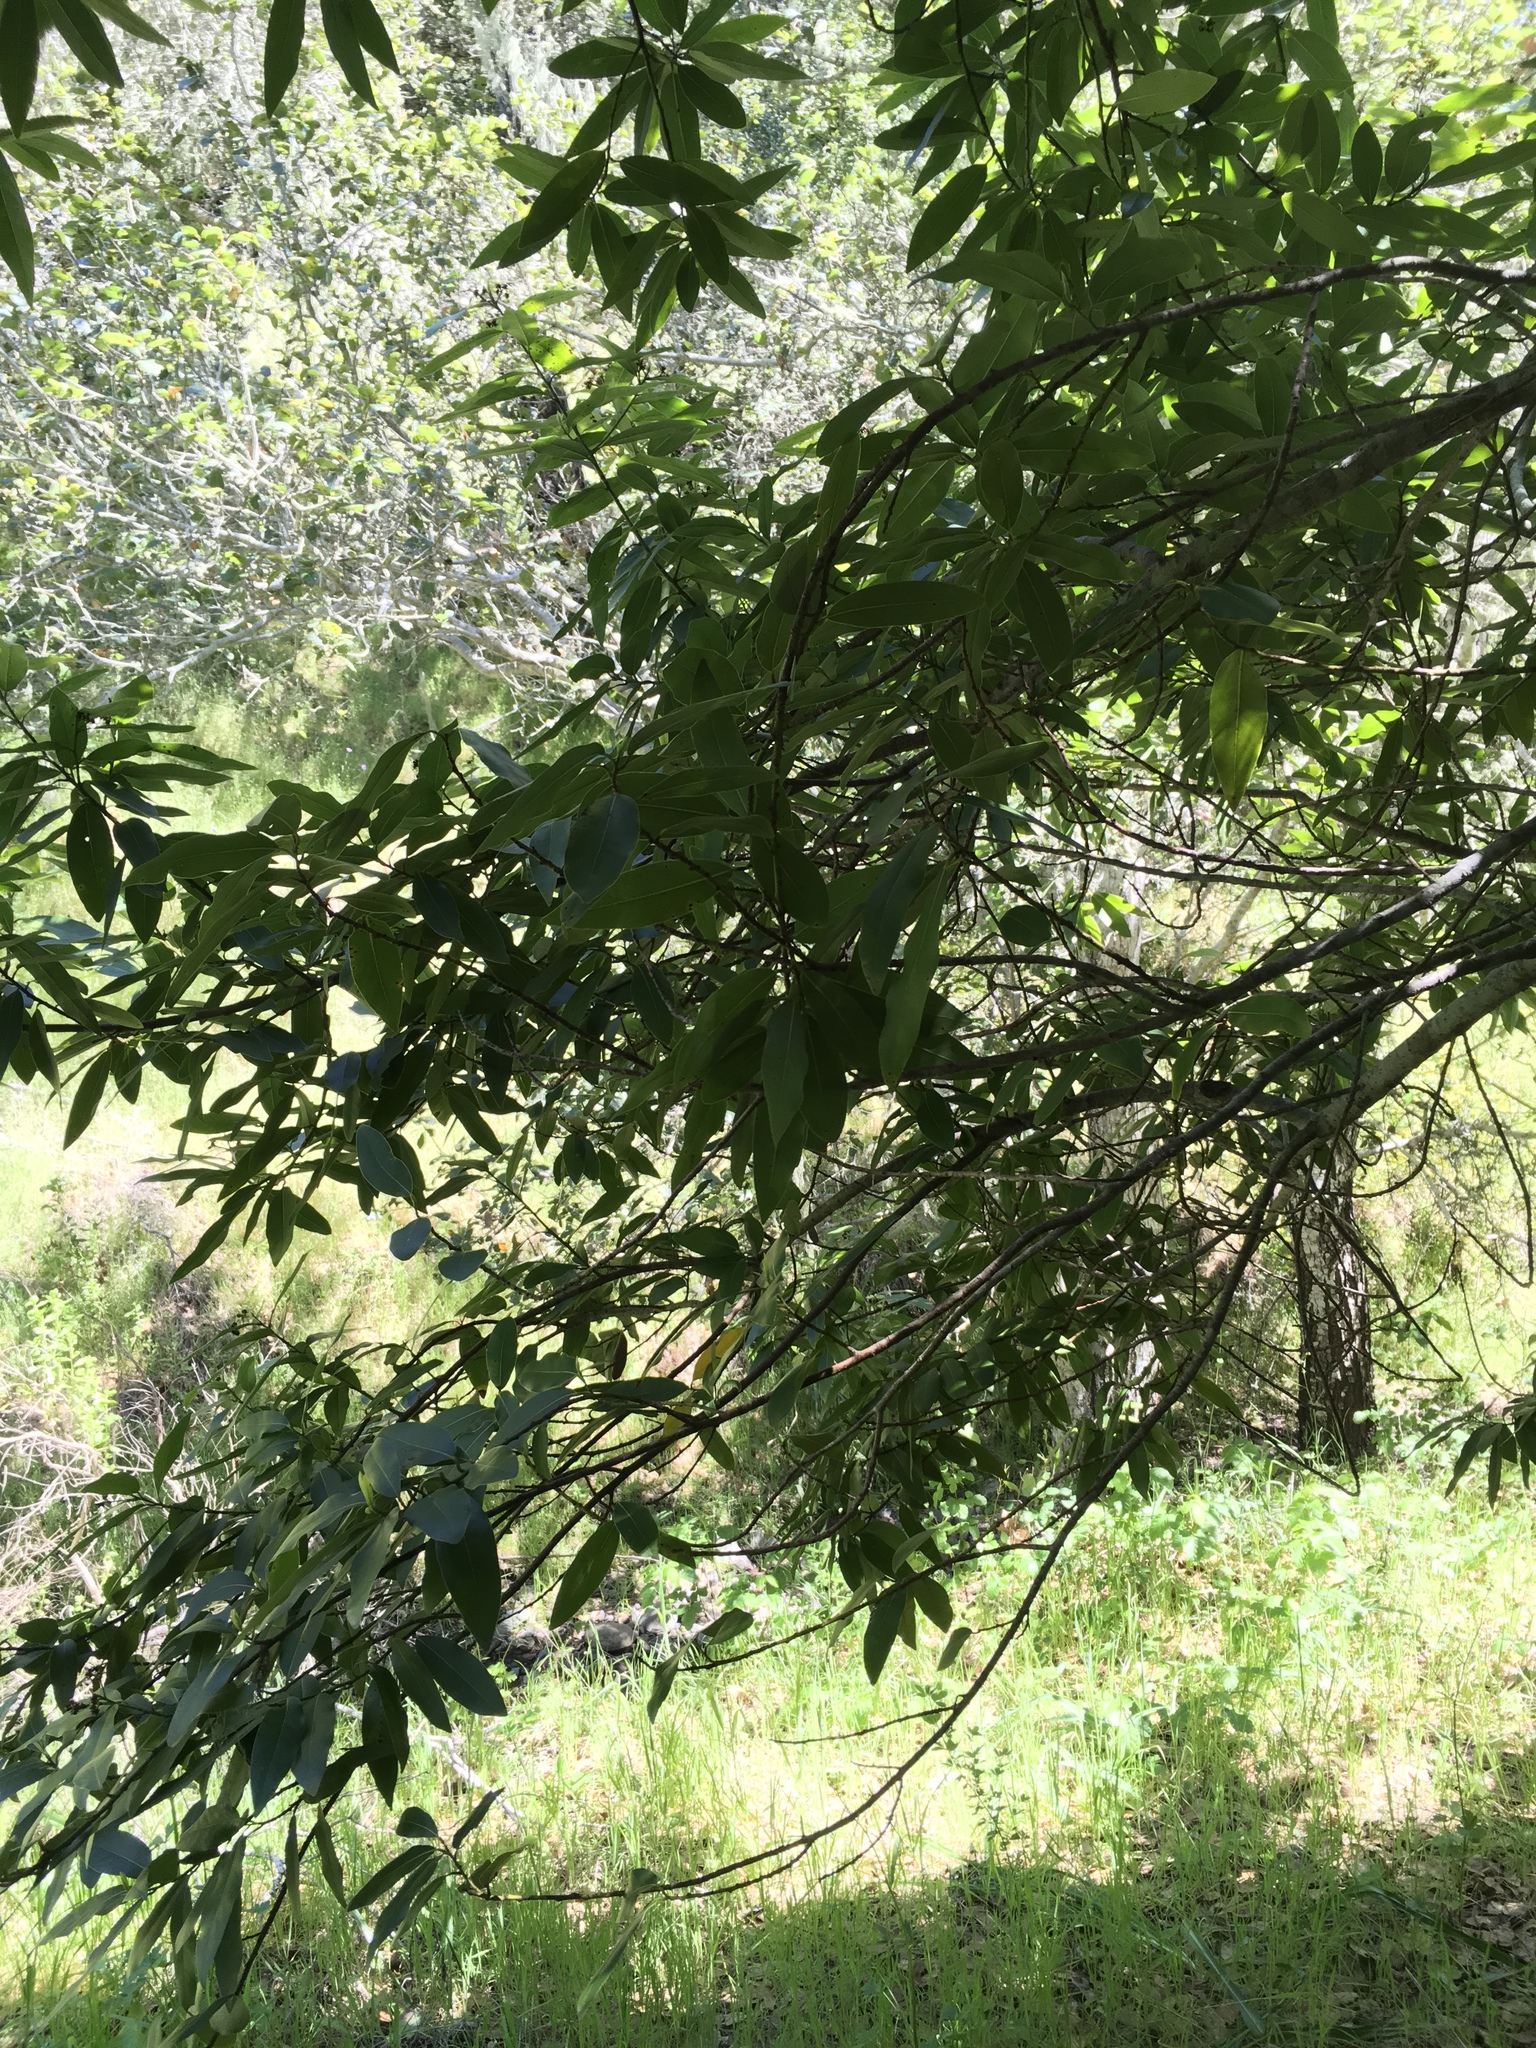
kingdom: Plantae
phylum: Tracheophyta
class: Magnoliopsida
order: Laurales
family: Lauraceae
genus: Umbellularia
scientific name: Umbellularia californica
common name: California bay
